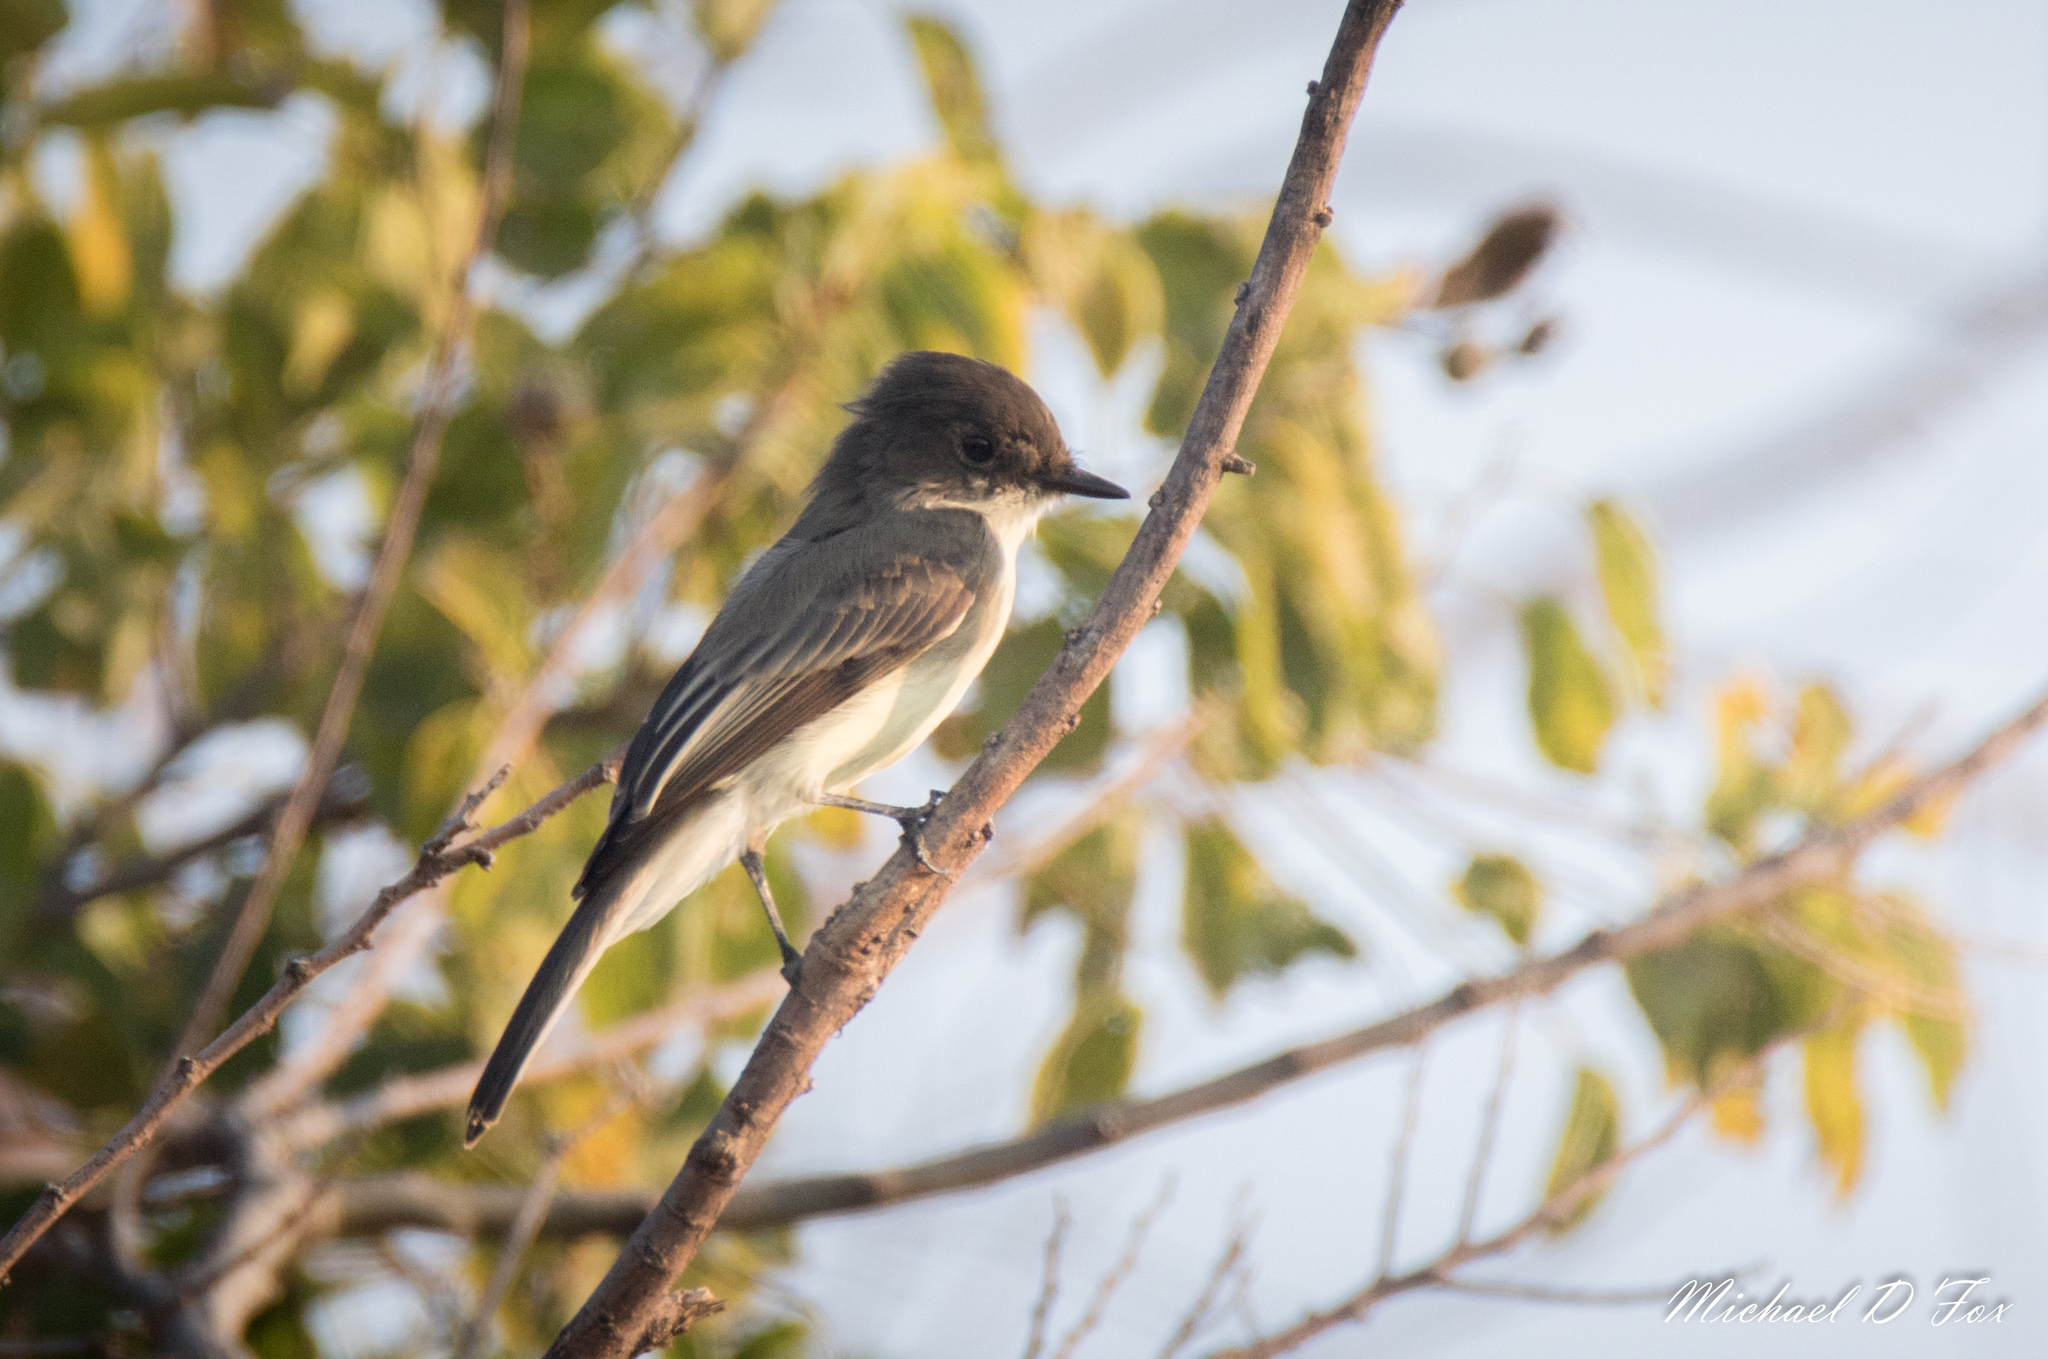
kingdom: Animalia
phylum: Chordata
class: Aves
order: Passeriformes
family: Tyrannidae
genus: Sayornis
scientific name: Sayornis phoebe
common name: Eastern phoebe
